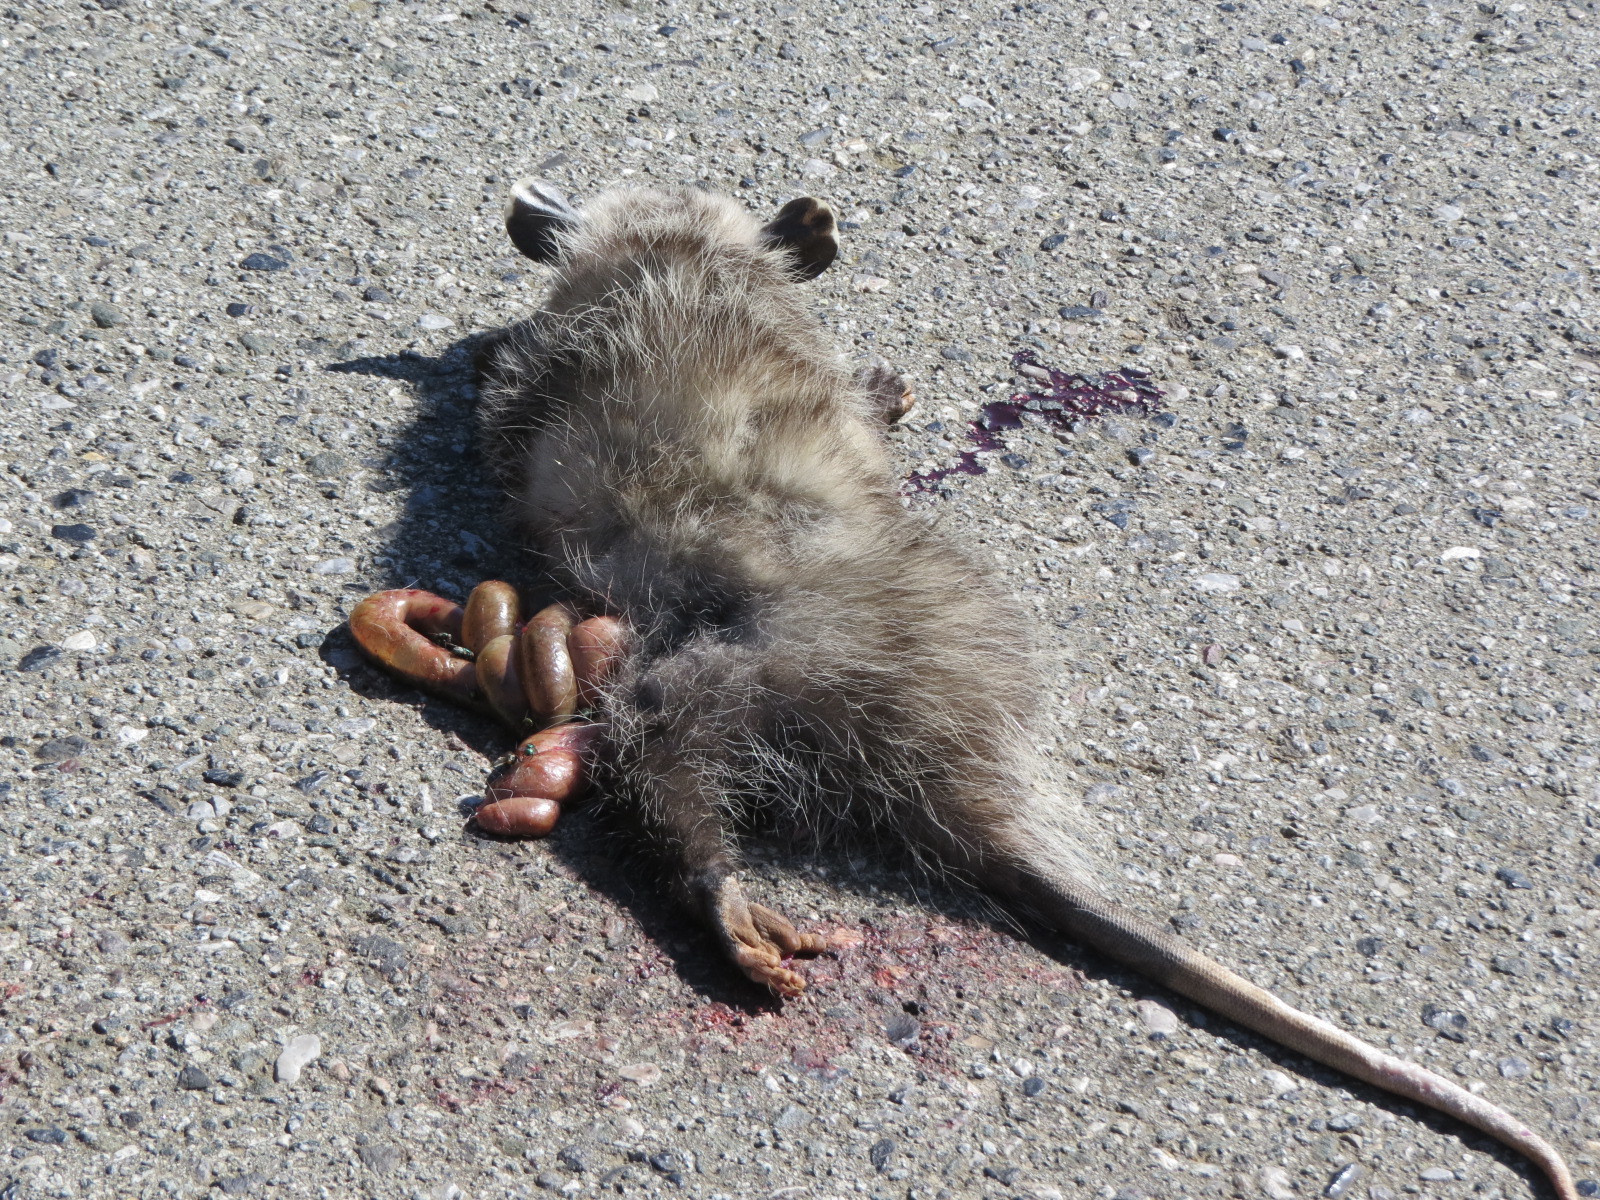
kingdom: Animalia
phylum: Chordata
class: Mammalia
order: Didelphimorphia
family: Didelphidae
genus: Didelphis
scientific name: Didelphis virginiana
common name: Virginia opossum
